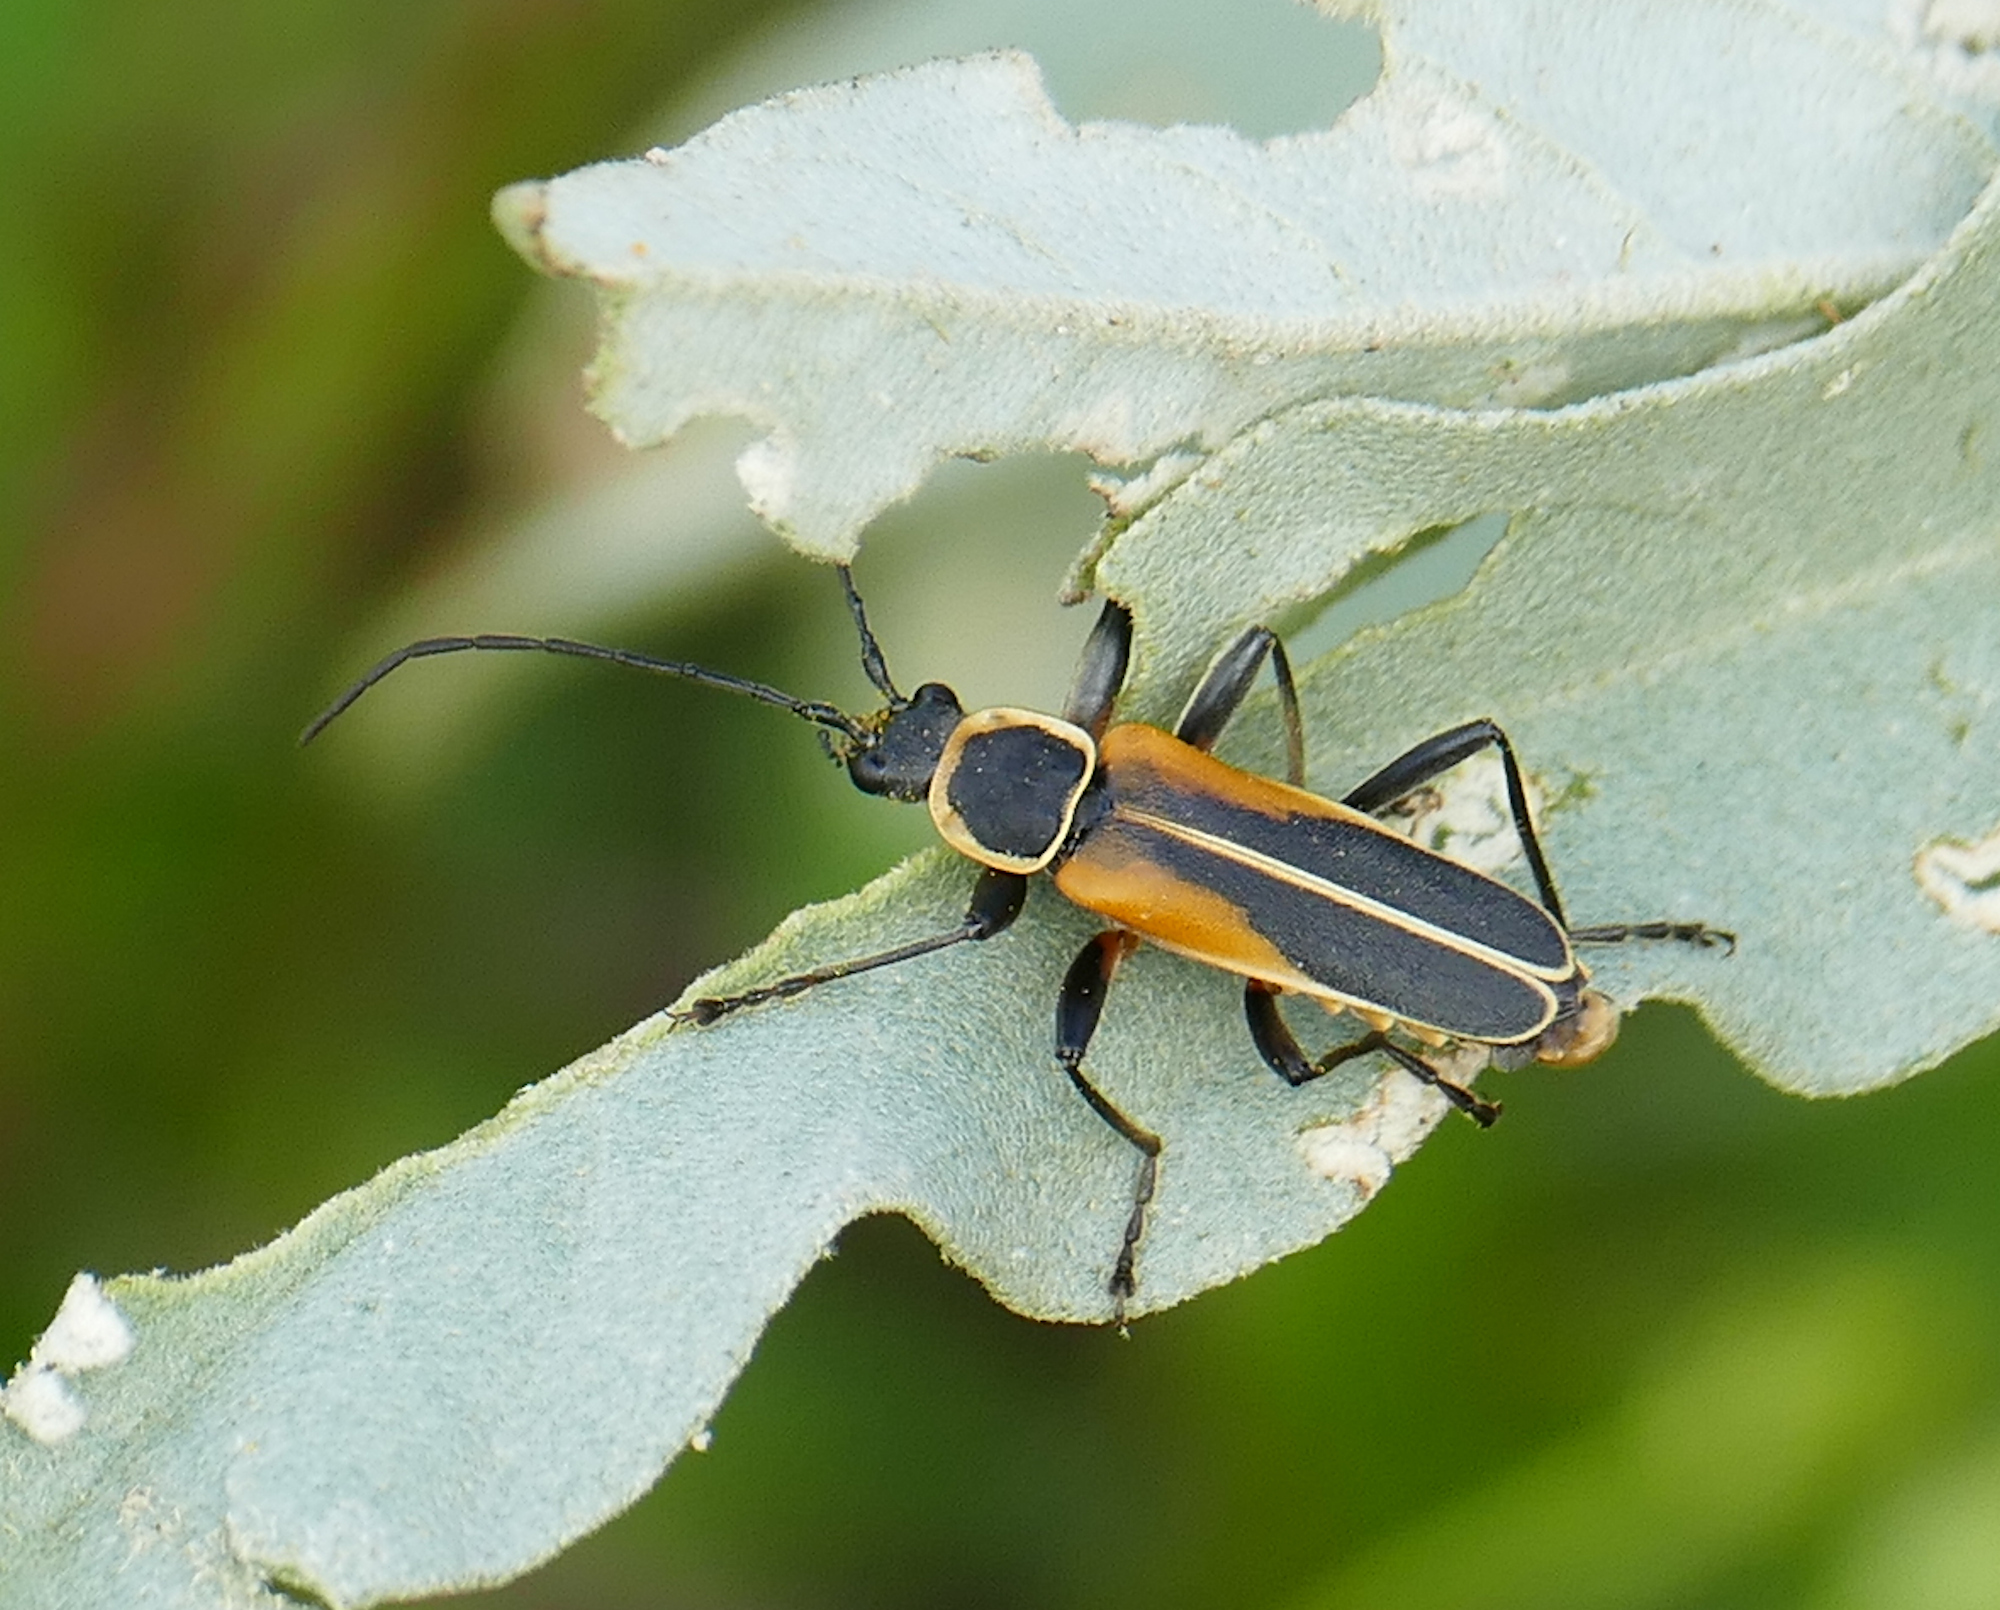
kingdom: Animalia
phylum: Arthropoda
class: Insecta
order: Coleoptera
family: Cantharidae
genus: Chauliognathus
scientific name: Chauliognathus opacus
